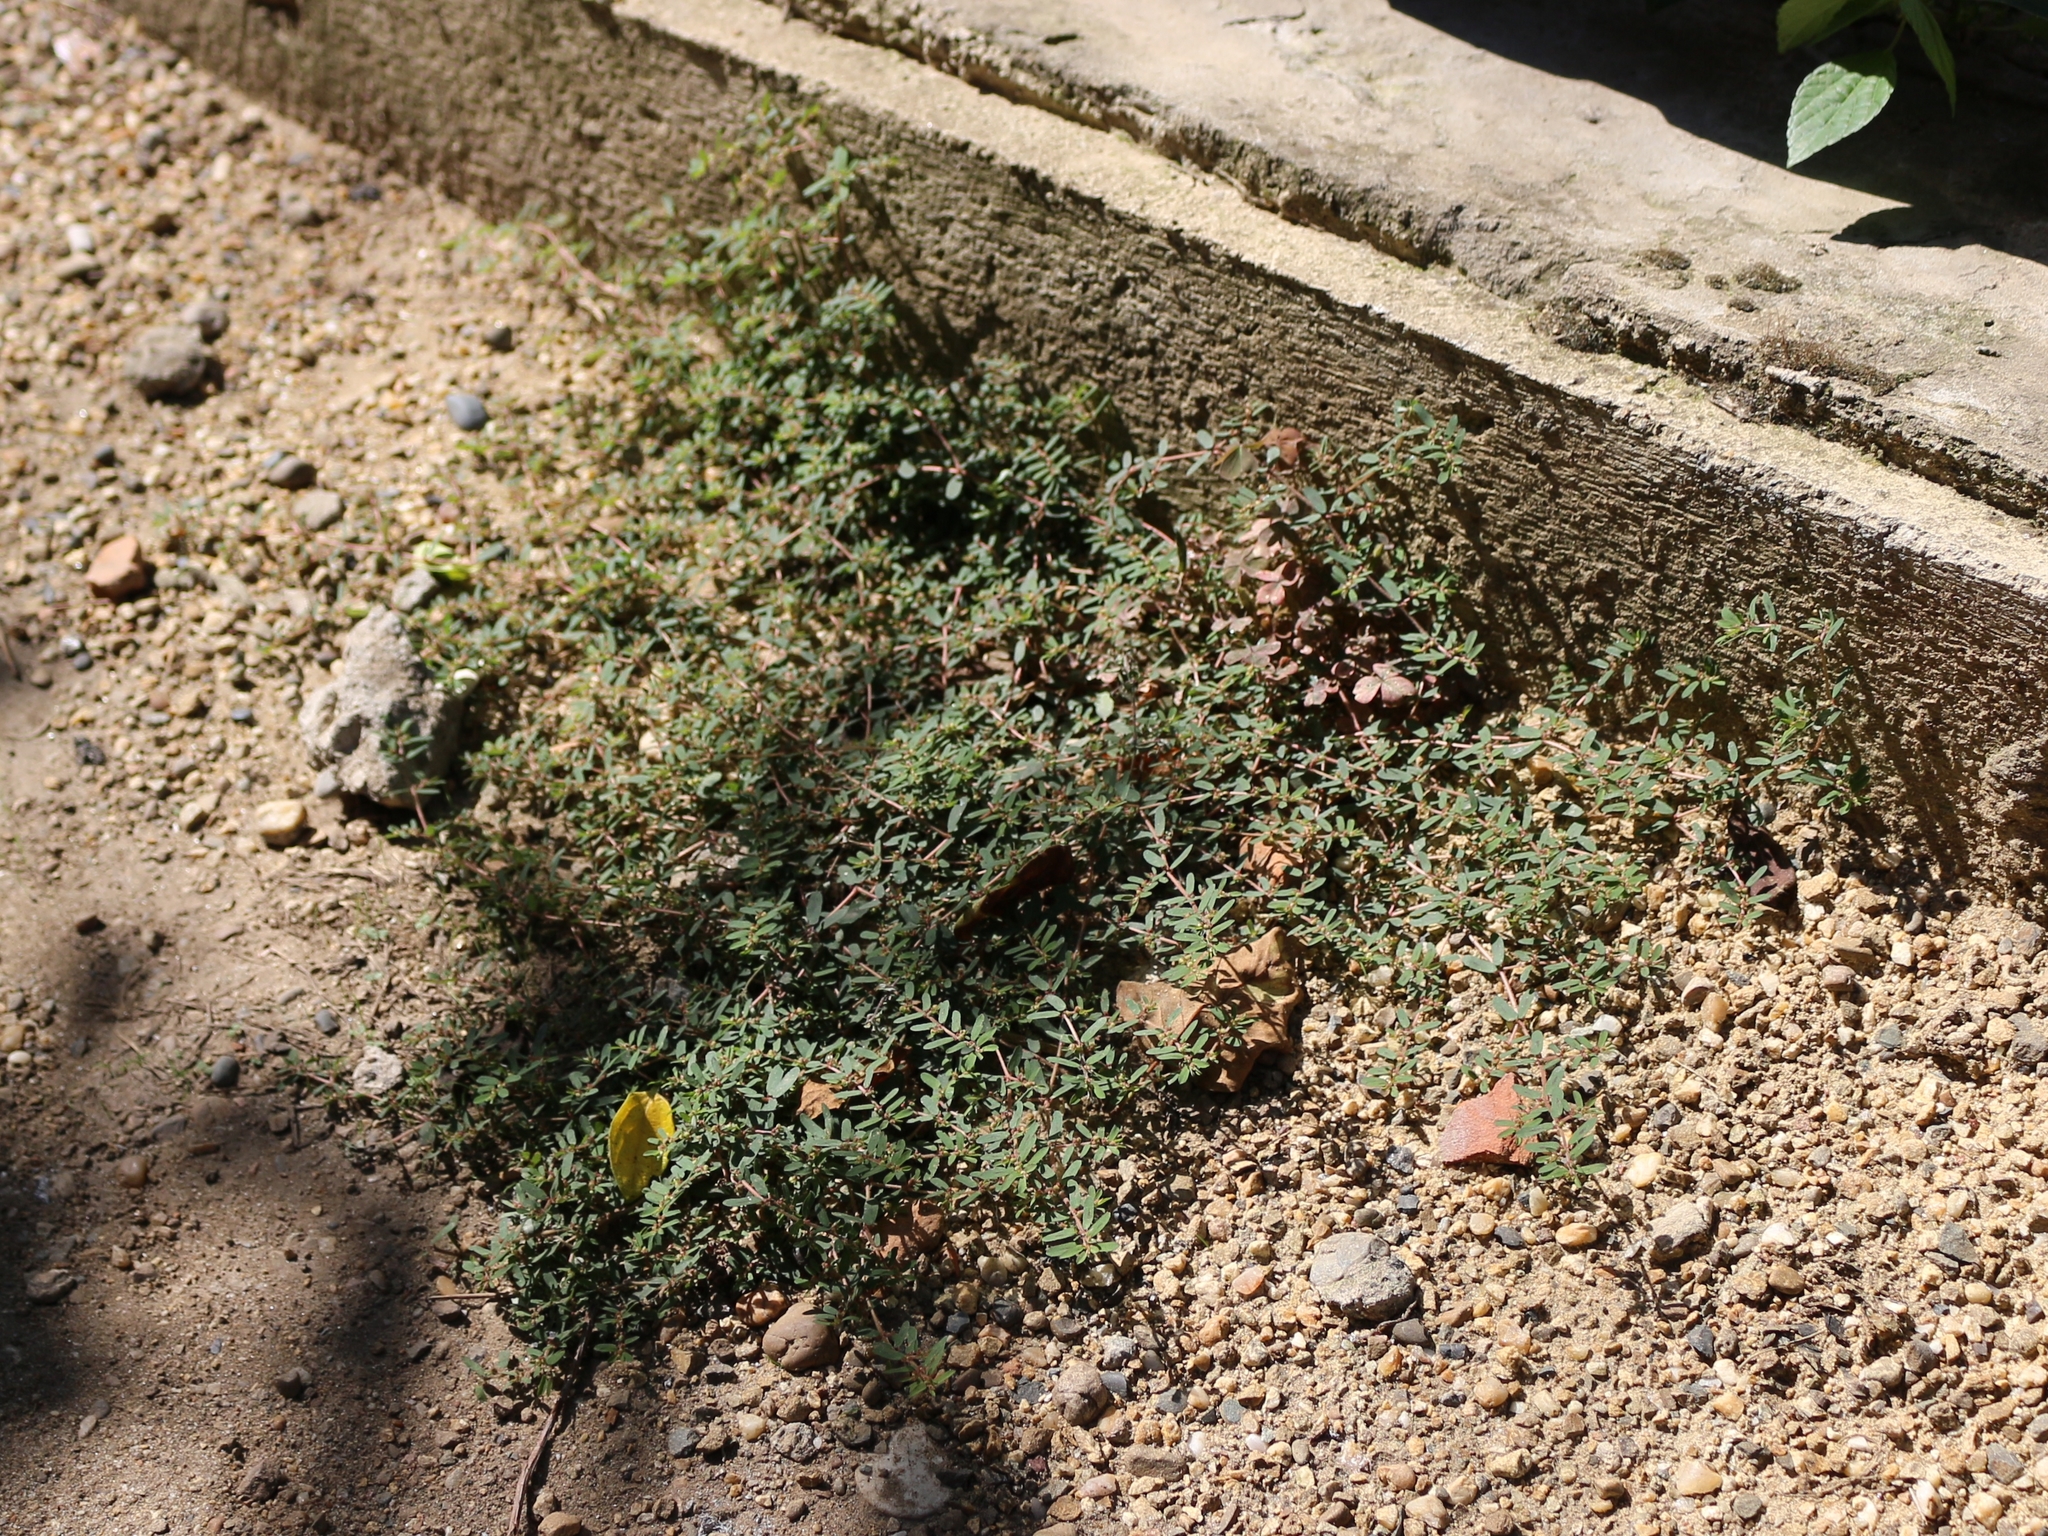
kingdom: Plantae
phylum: Tracheophyta
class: Magnoliopsida
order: Malpighiales
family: Euphorbiaceae
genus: Euphorbia
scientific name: Euphorbia maculata
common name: Spotted spurge
